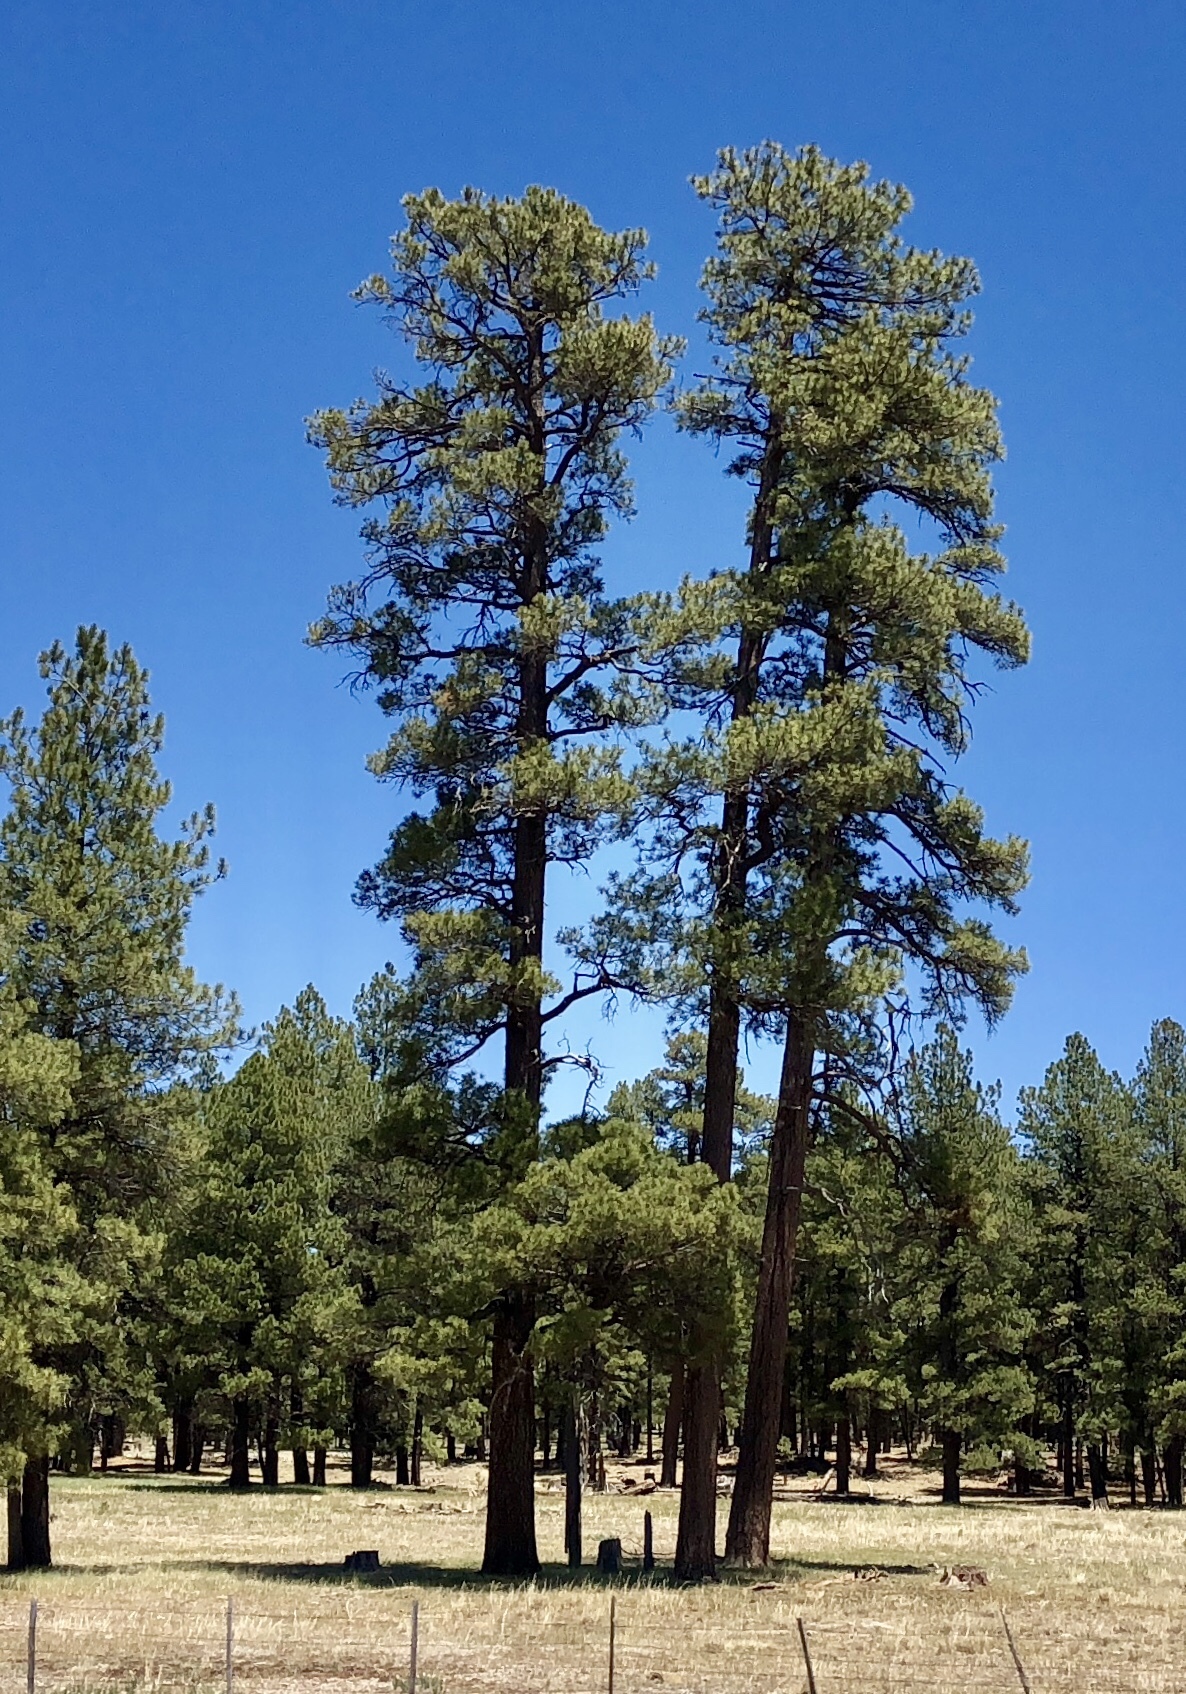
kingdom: Plantae
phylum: Tracheophyta
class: Pinopsida
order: Pinales
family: Pinaceae
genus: Pinus
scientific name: Pinus ponderosa
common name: Western yellow-pine
